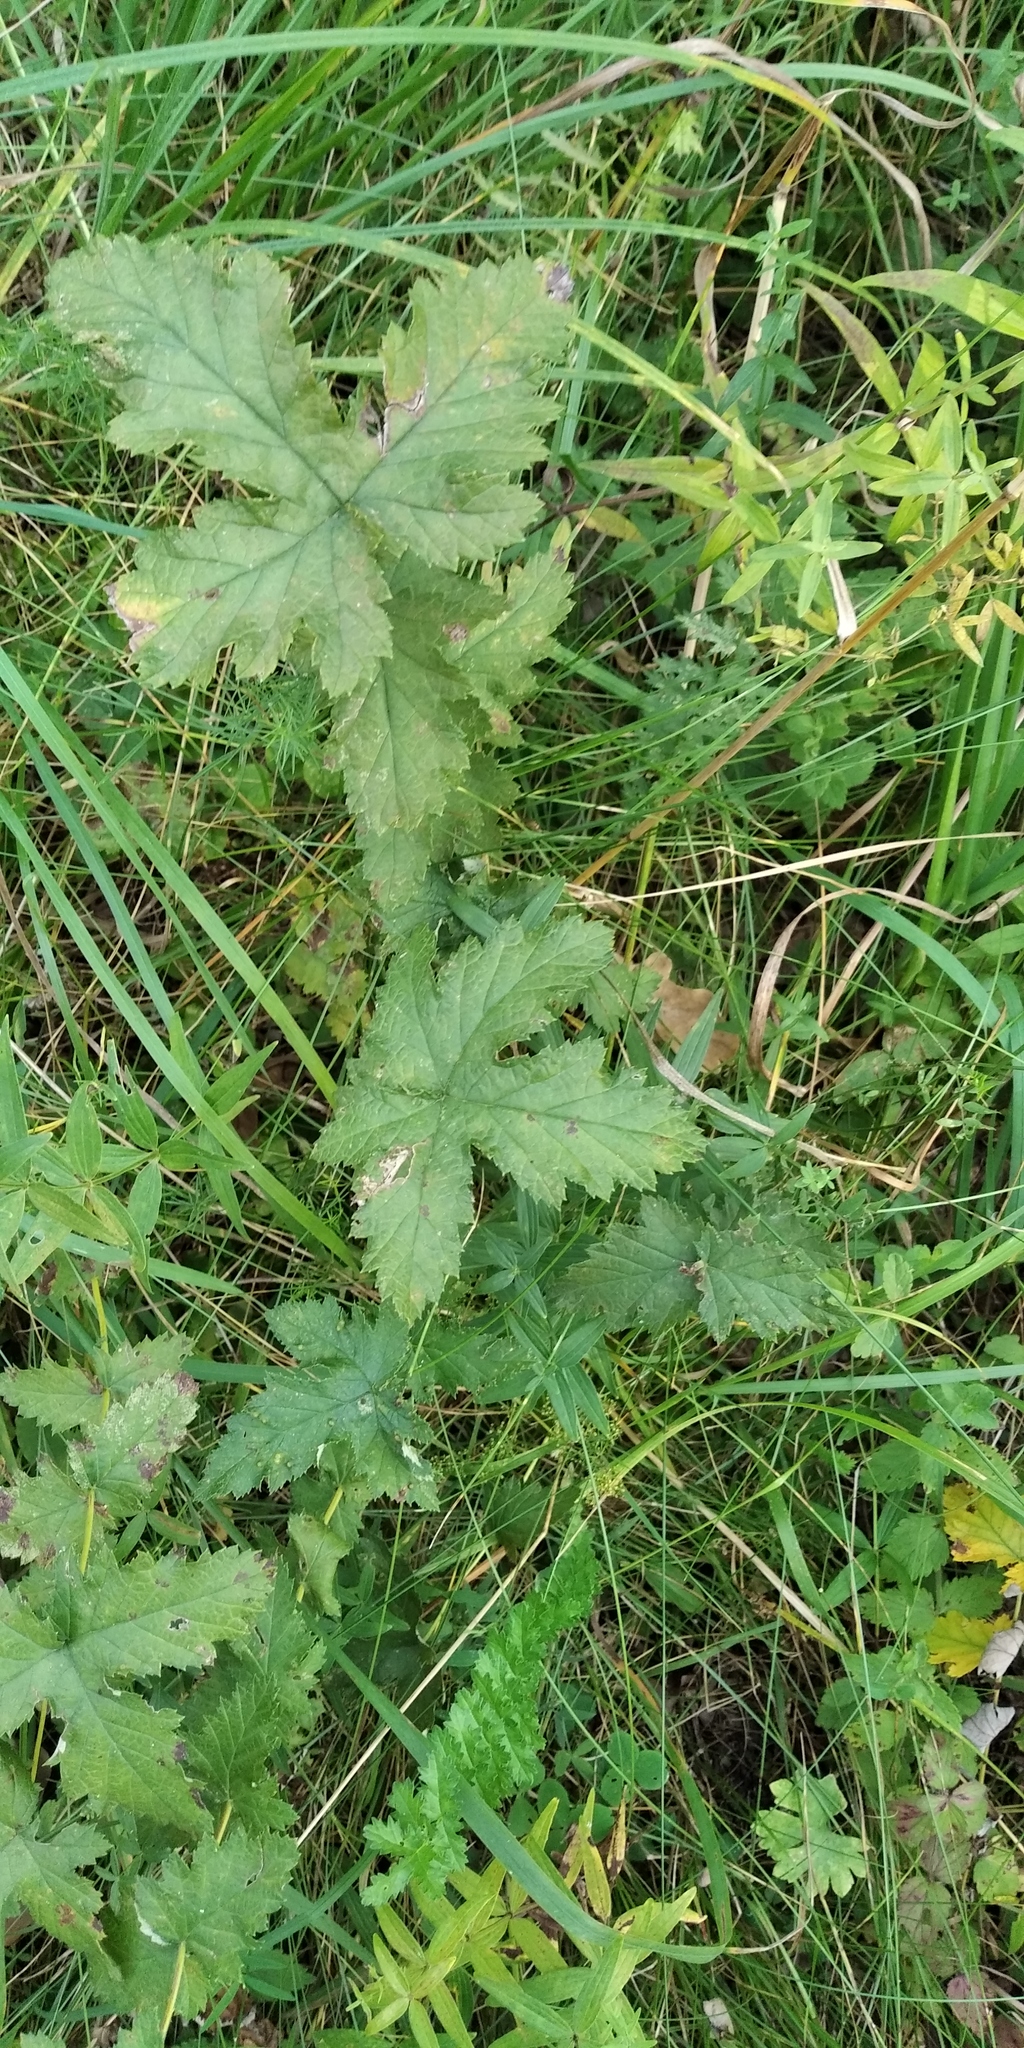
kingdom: Plantae
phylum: Tracheophyta
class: Magnoliopsida
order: Apiales
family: Apiaceae
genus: Heracleum
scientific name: Heracleum sphondylium
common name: Hogweed
